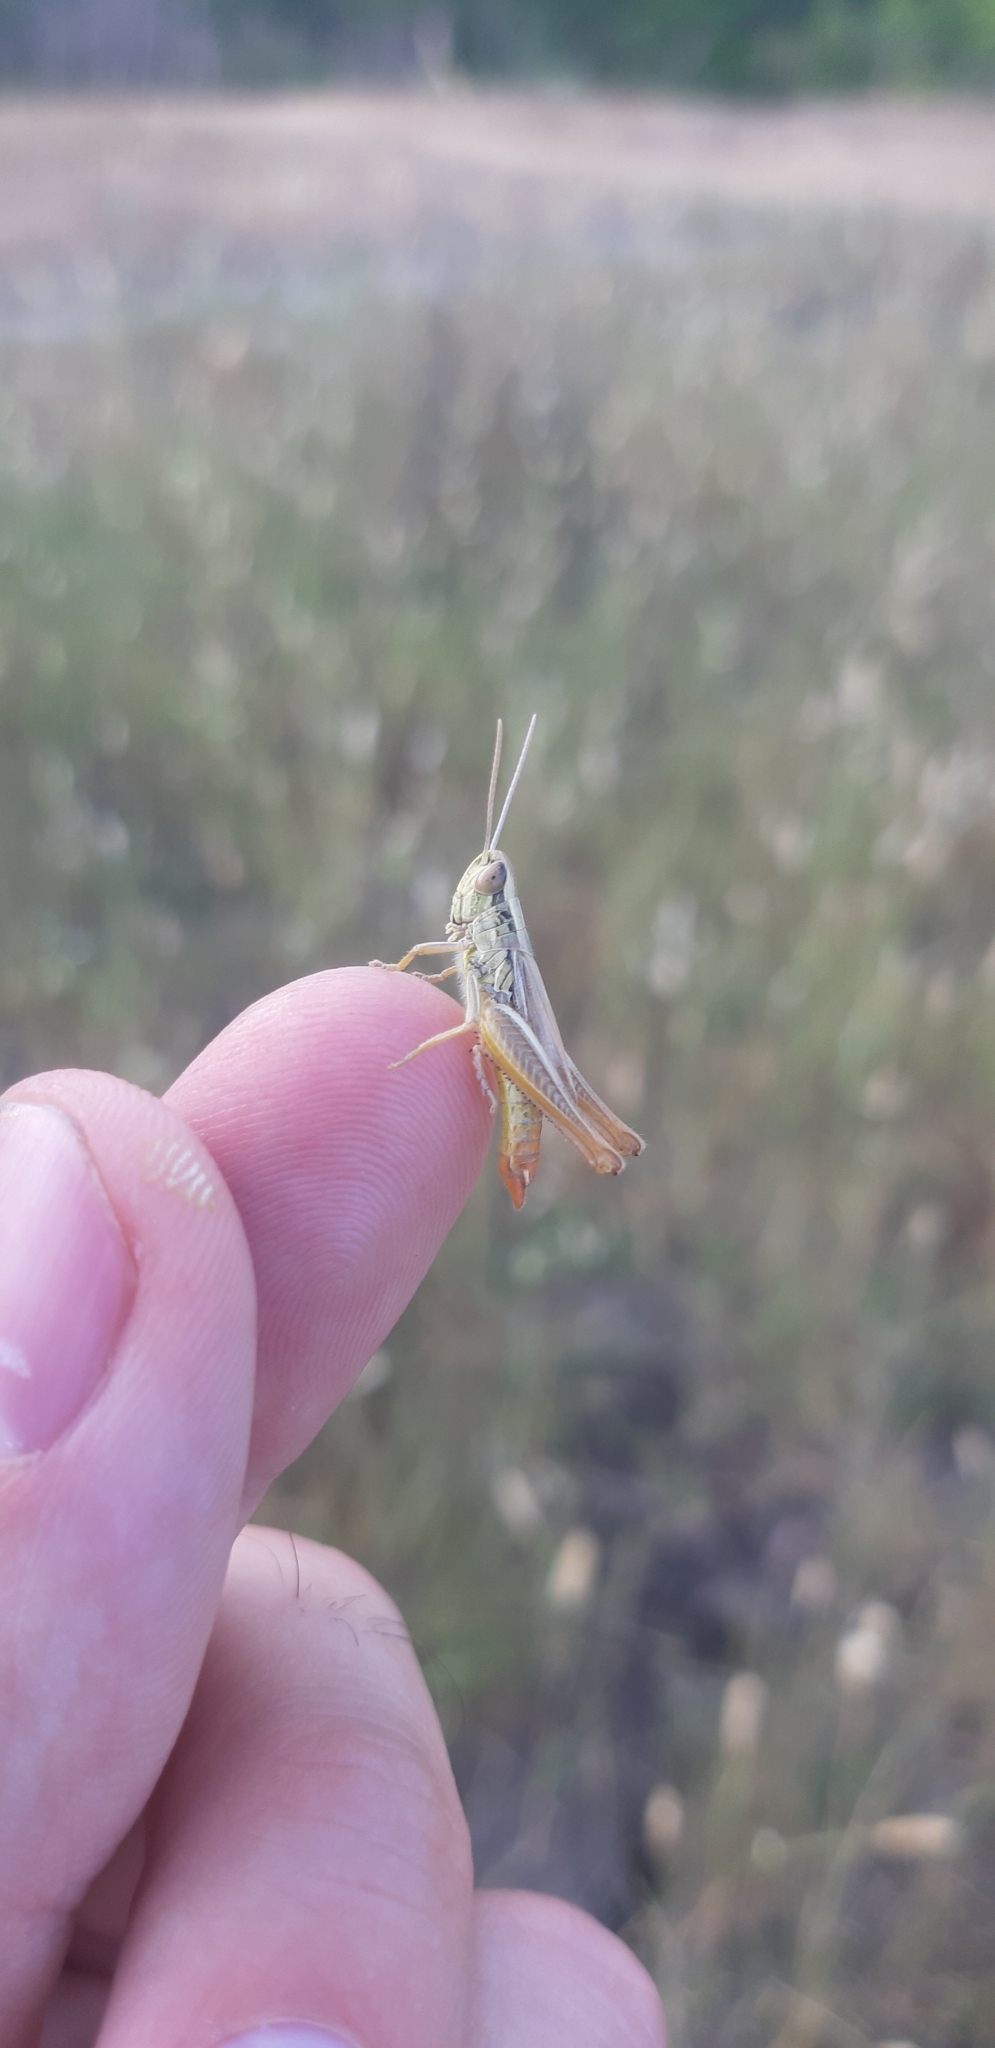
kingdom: Animalia
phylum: Arthropoda
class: Insecta
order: Orthoptera
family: Acrididae
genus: Euchorthippus
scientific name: Euchorthippus declivus
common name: Common straw grasshopper
